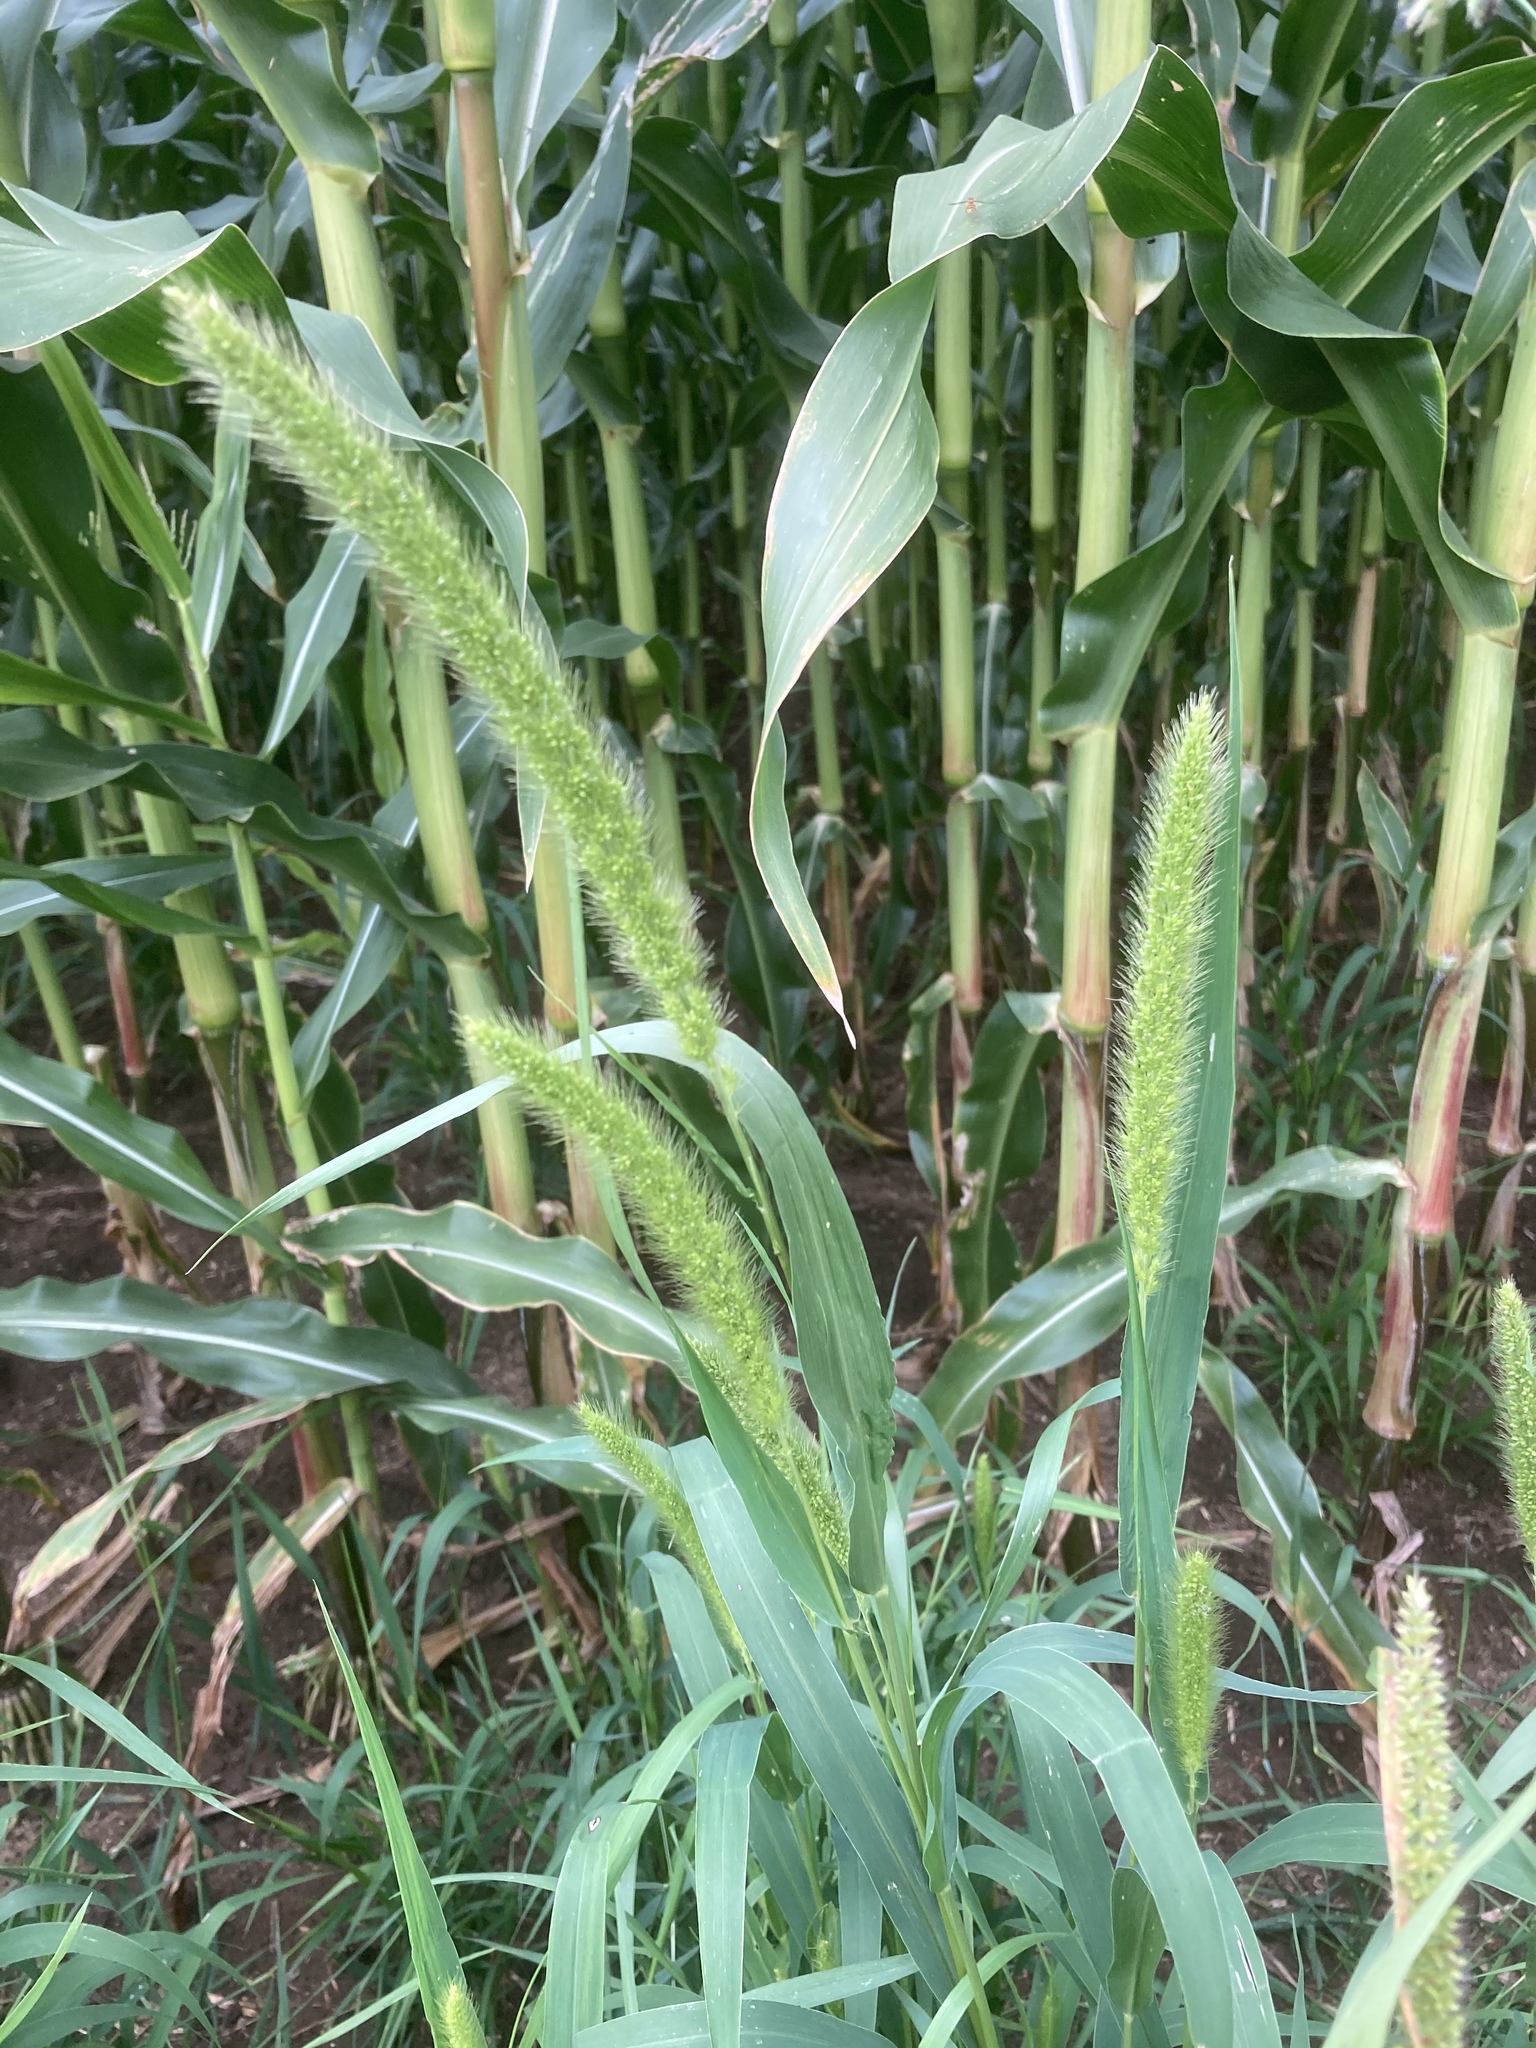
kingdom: Plantae
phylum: Tracheophyta
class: Liliopsida
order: Poales
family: Poaceae
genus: Setaria
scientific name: Setaria viridis
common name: Green bristlegrass
